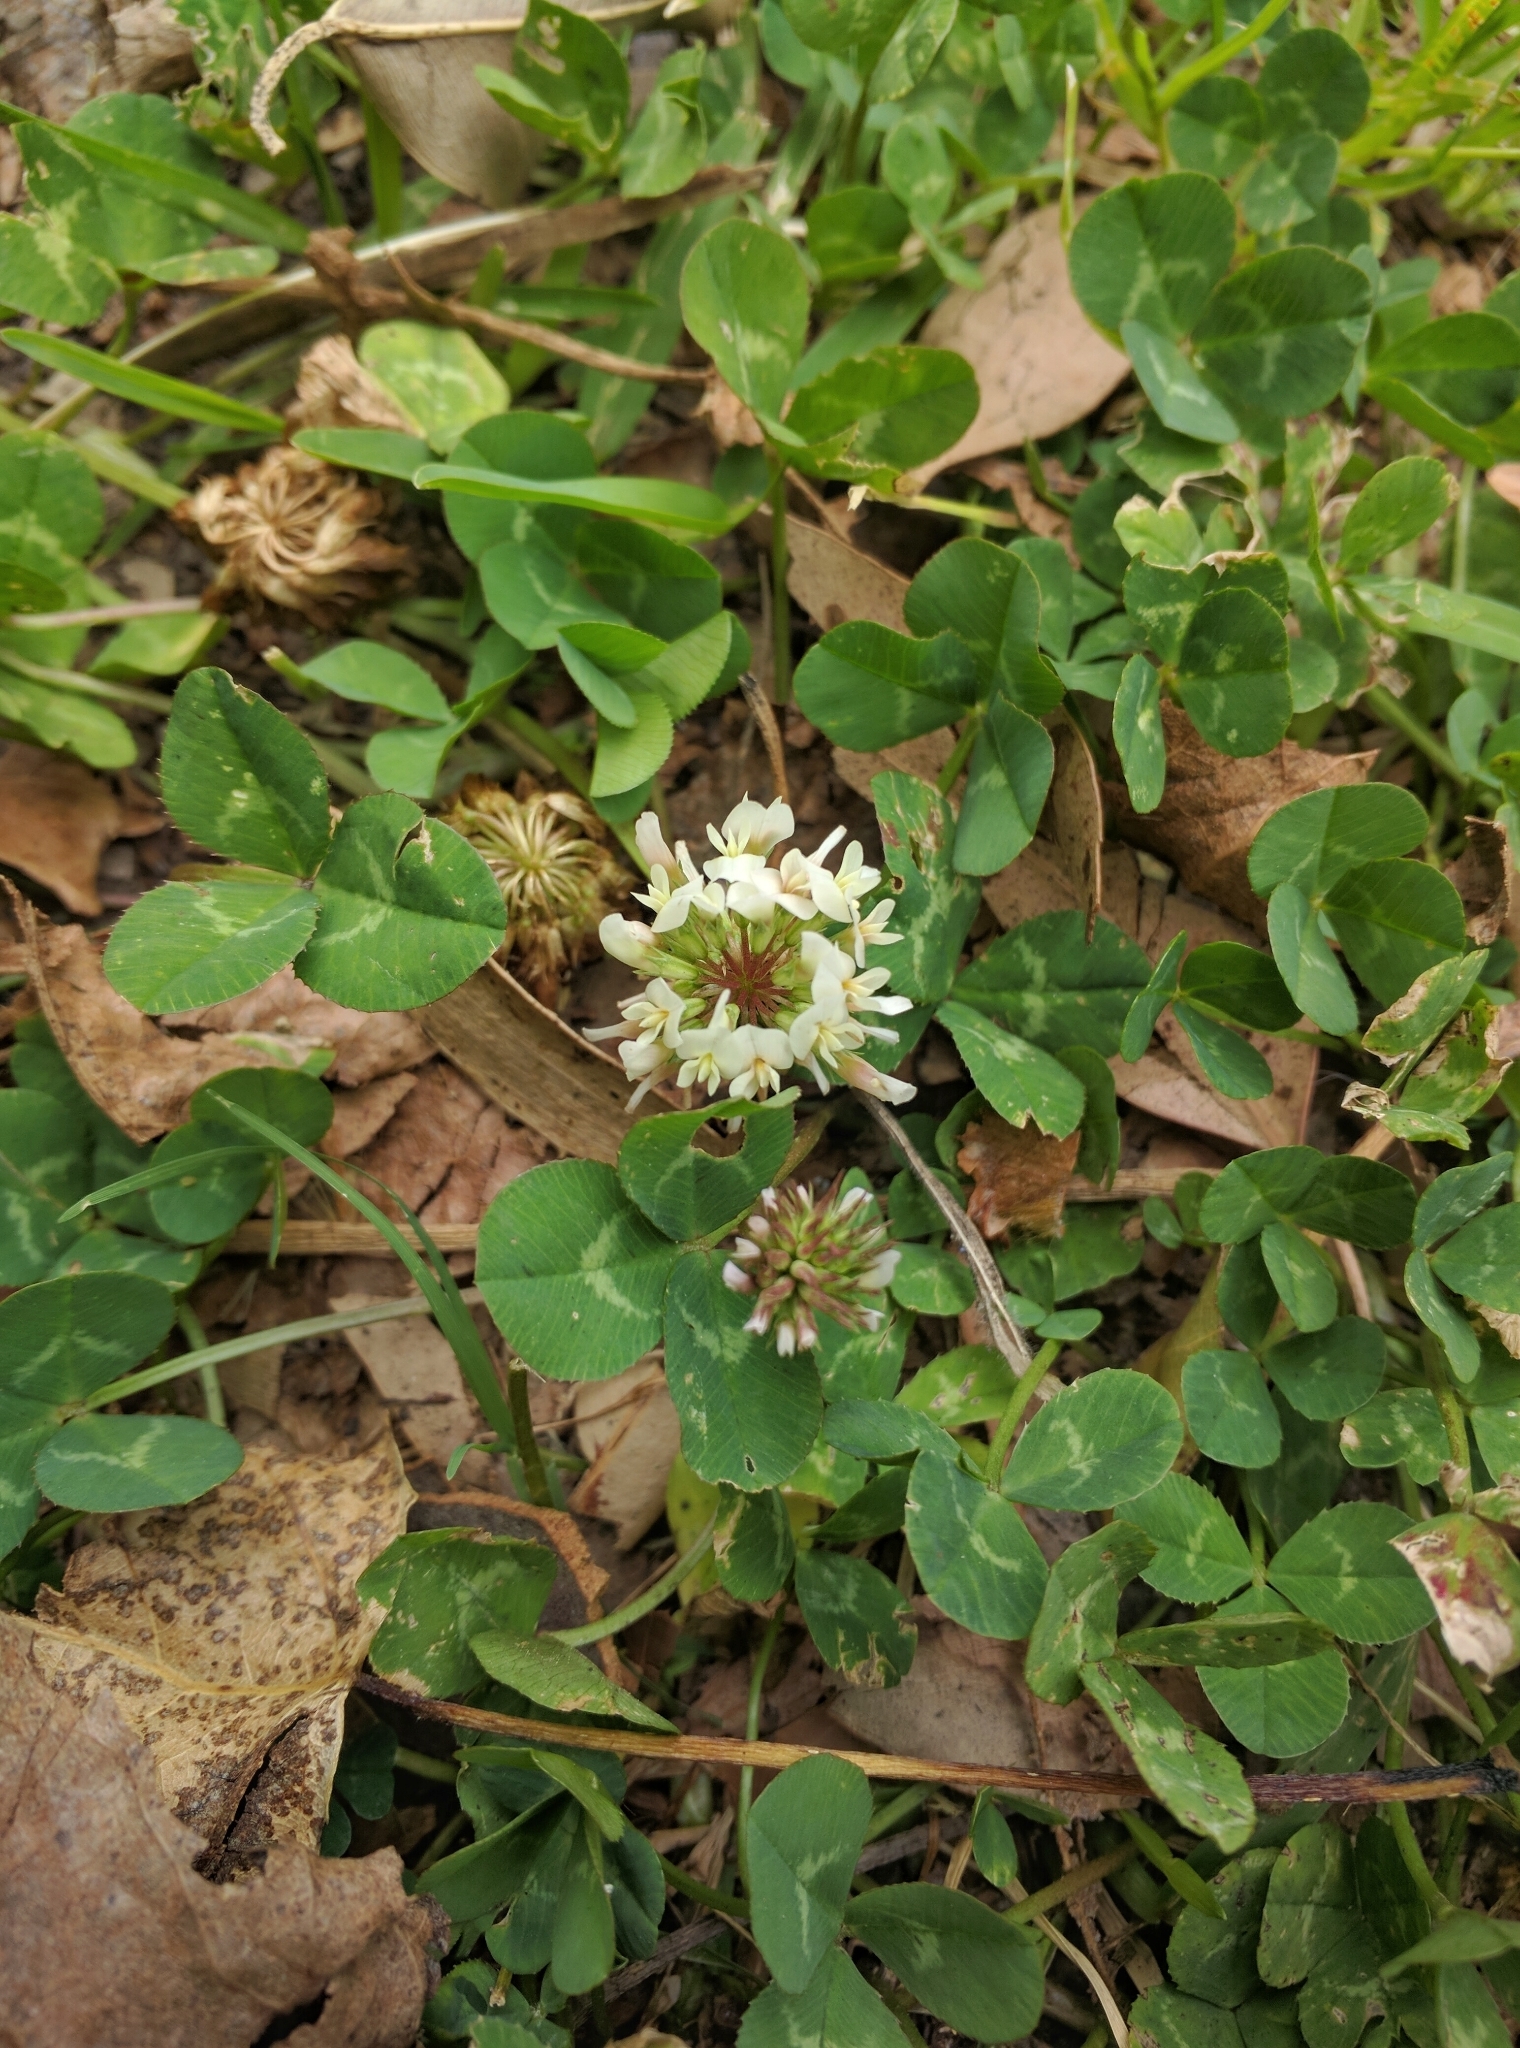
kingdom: Plantae
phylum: Tracheophyta
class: Magnoliopsida
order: Fabales
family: Fabaceae
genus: Trifolium
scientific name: Trifolium repens
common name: White clover
